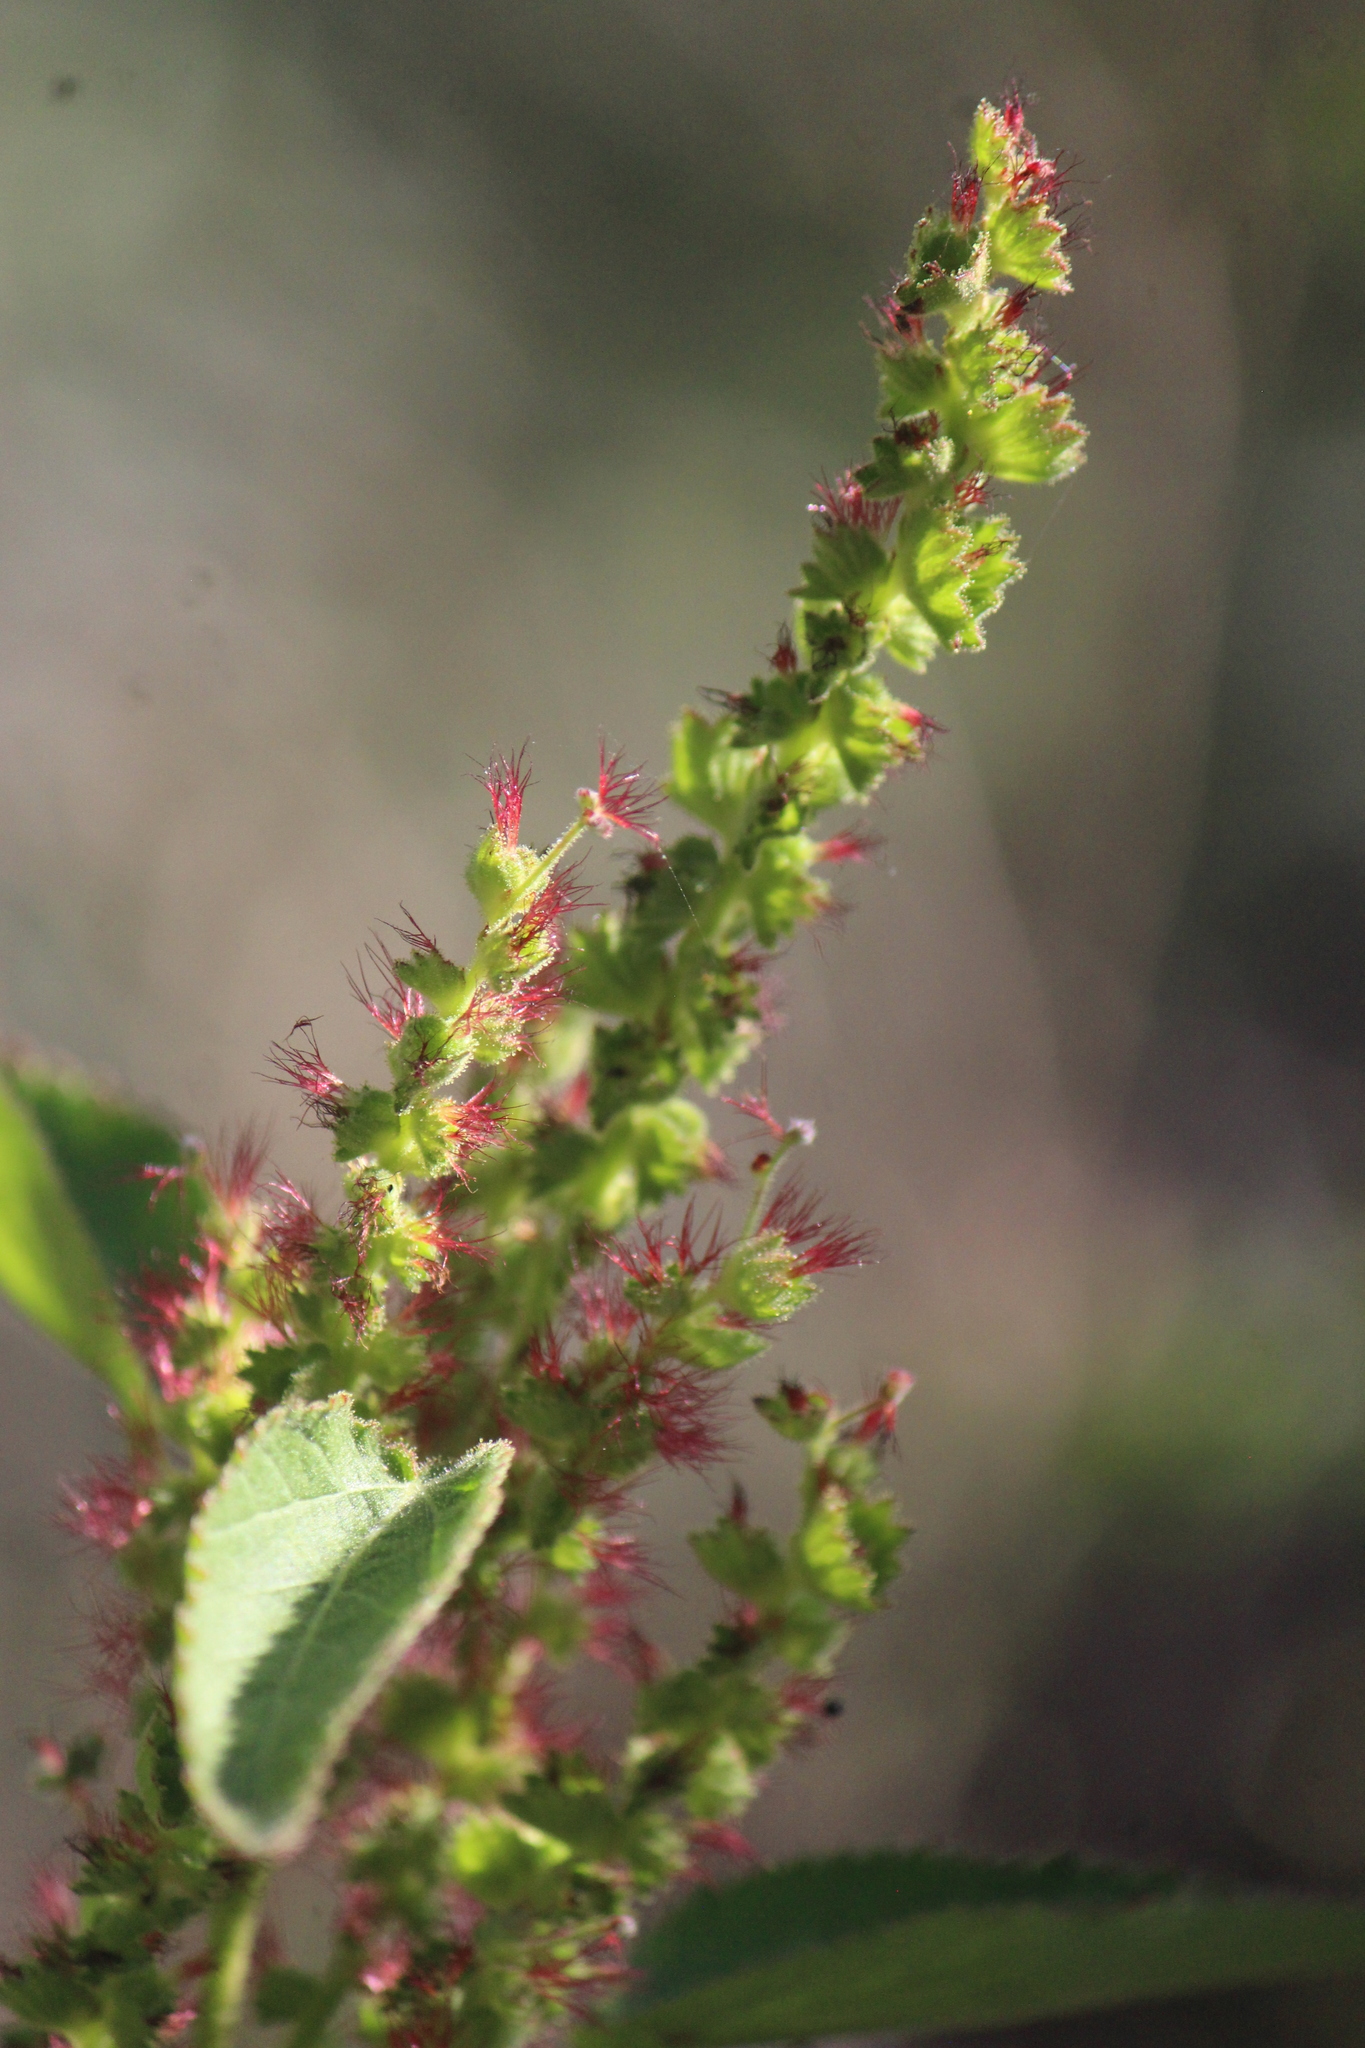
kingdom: Plantae
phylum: Tracheophyta
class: Magnoliopsida
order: Malpighiales
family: Euphorbiaceae
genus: Acalypha
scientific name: Acalypha phleoides
